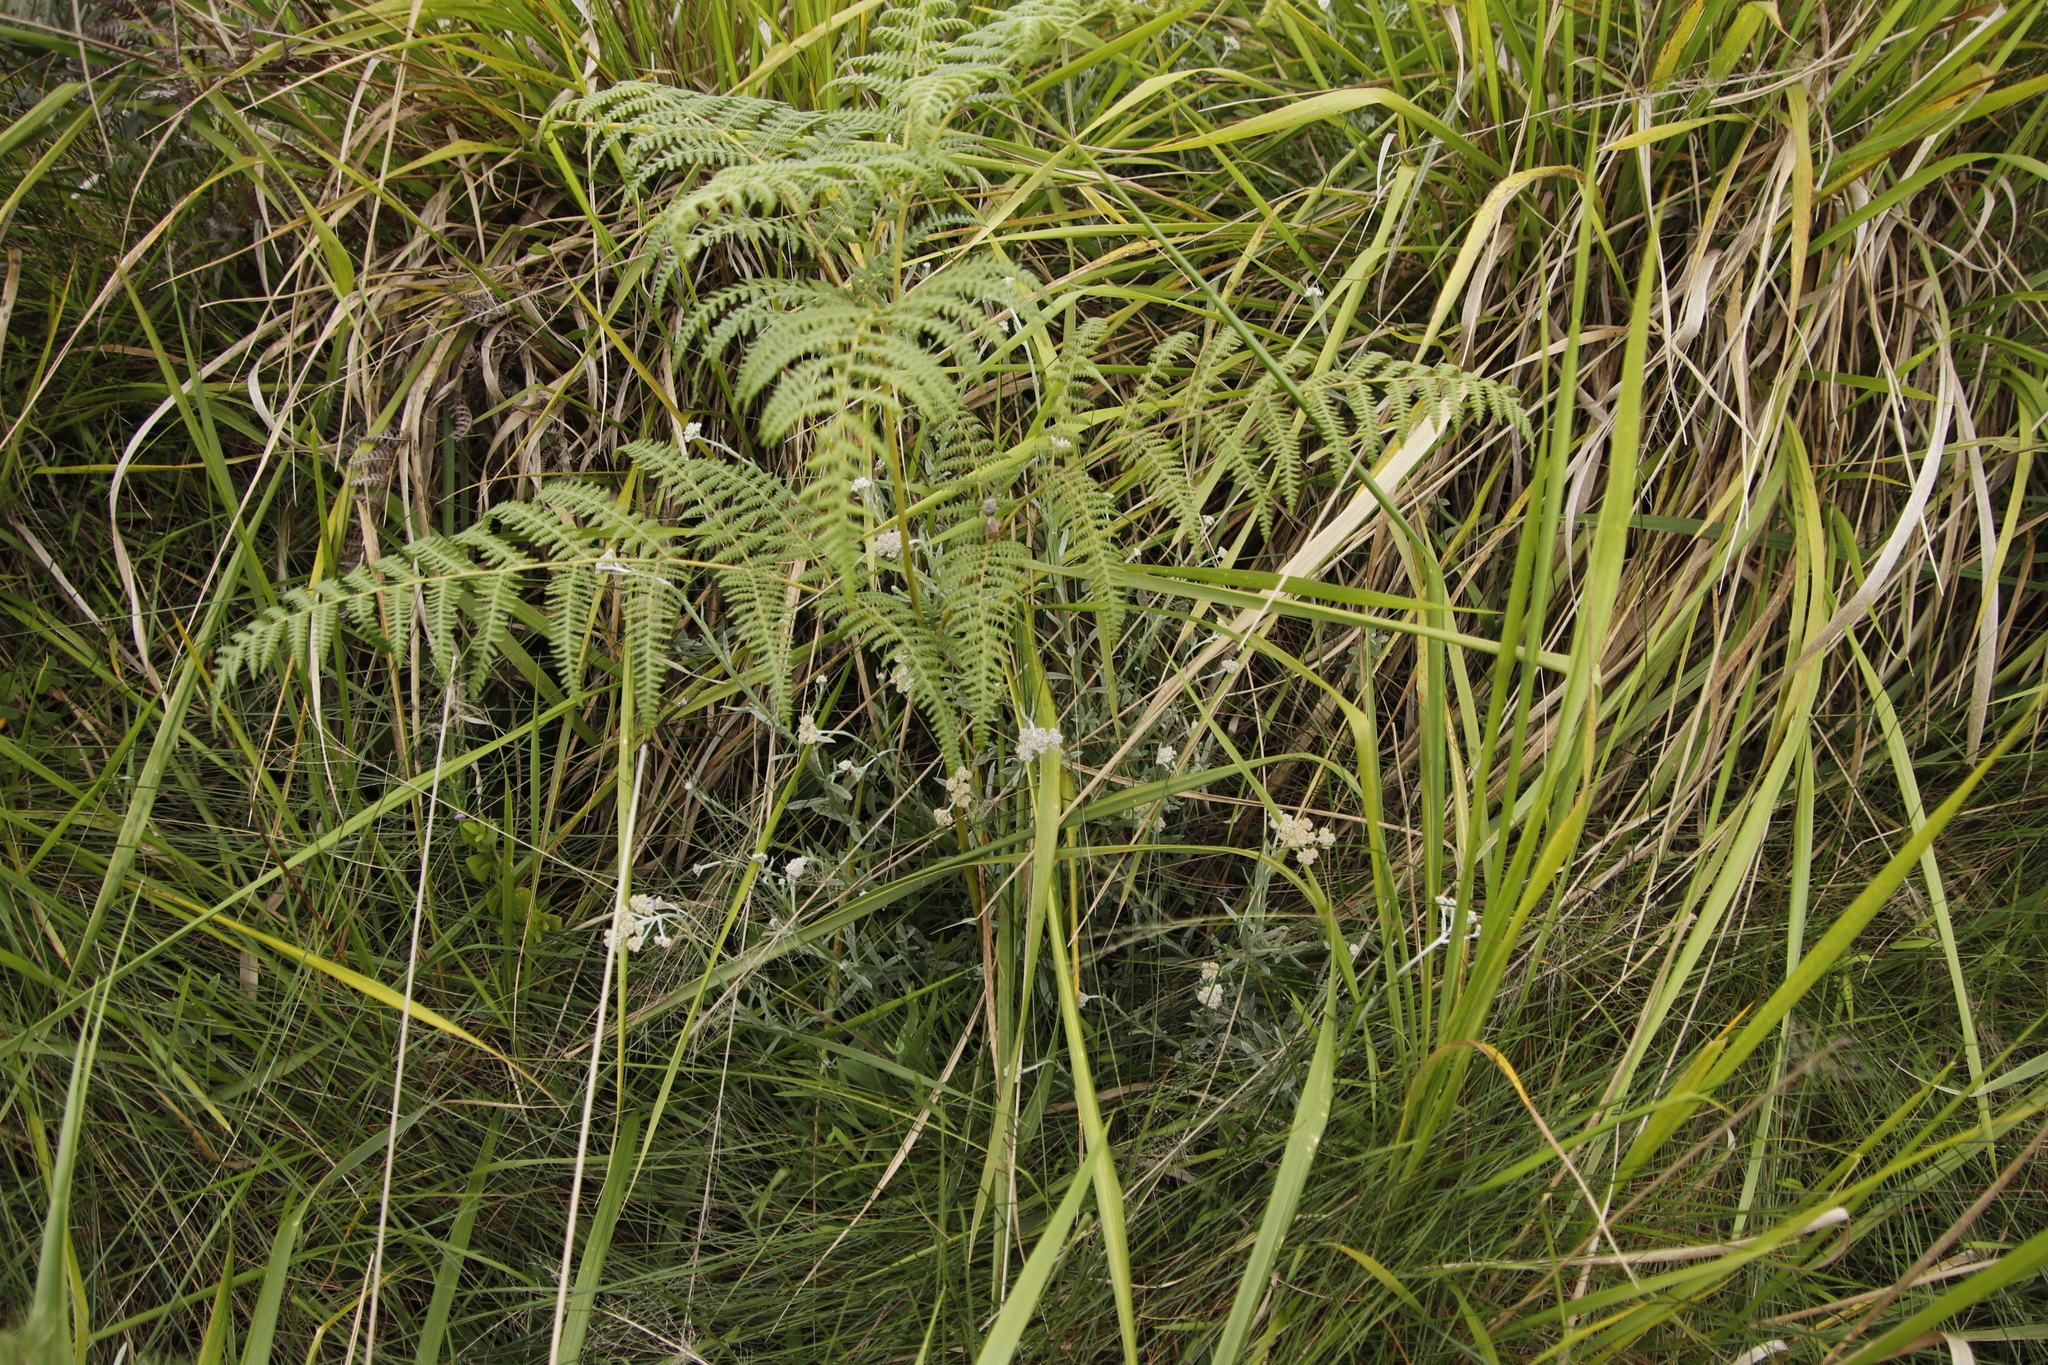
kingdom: Plantae
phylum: Tracheophyta
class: Polypodiopsida
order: Polypodiales
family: Dennstaedtiaceae
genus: Pteridium
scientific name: Pteridium aquilinum
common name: Bracken
